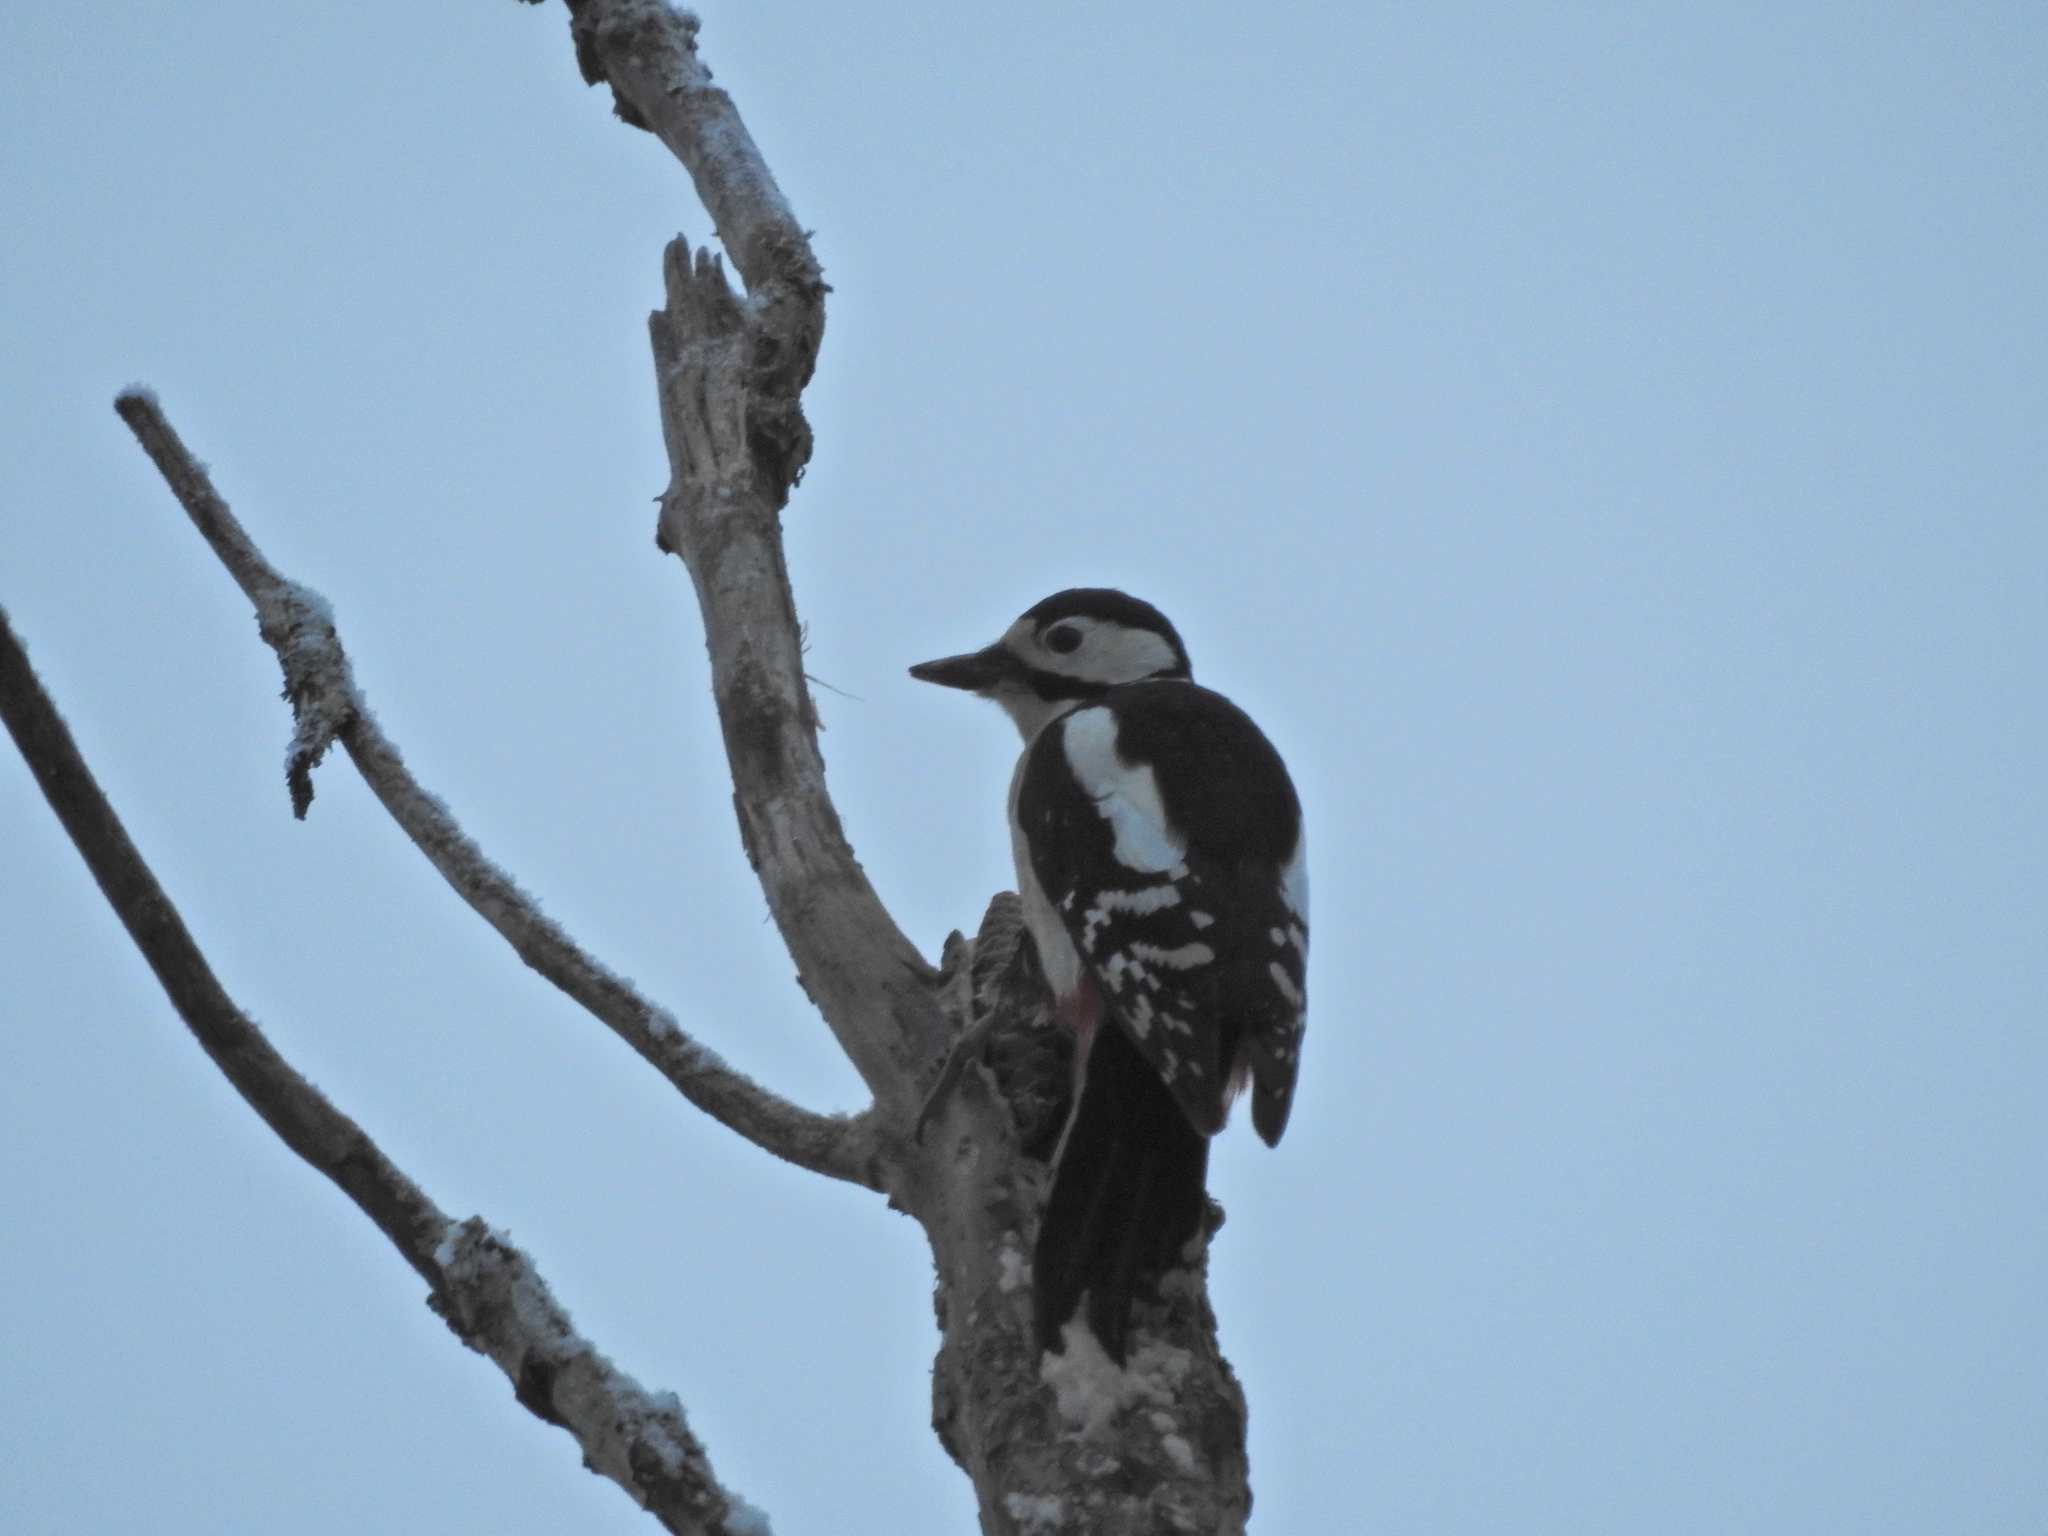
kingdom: Animalia
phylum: Chordata
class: Aves
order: Piciformes
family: Picidae
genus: Dendrocopos
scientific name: Dendrocopos major
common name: Great spotted woodpecker
